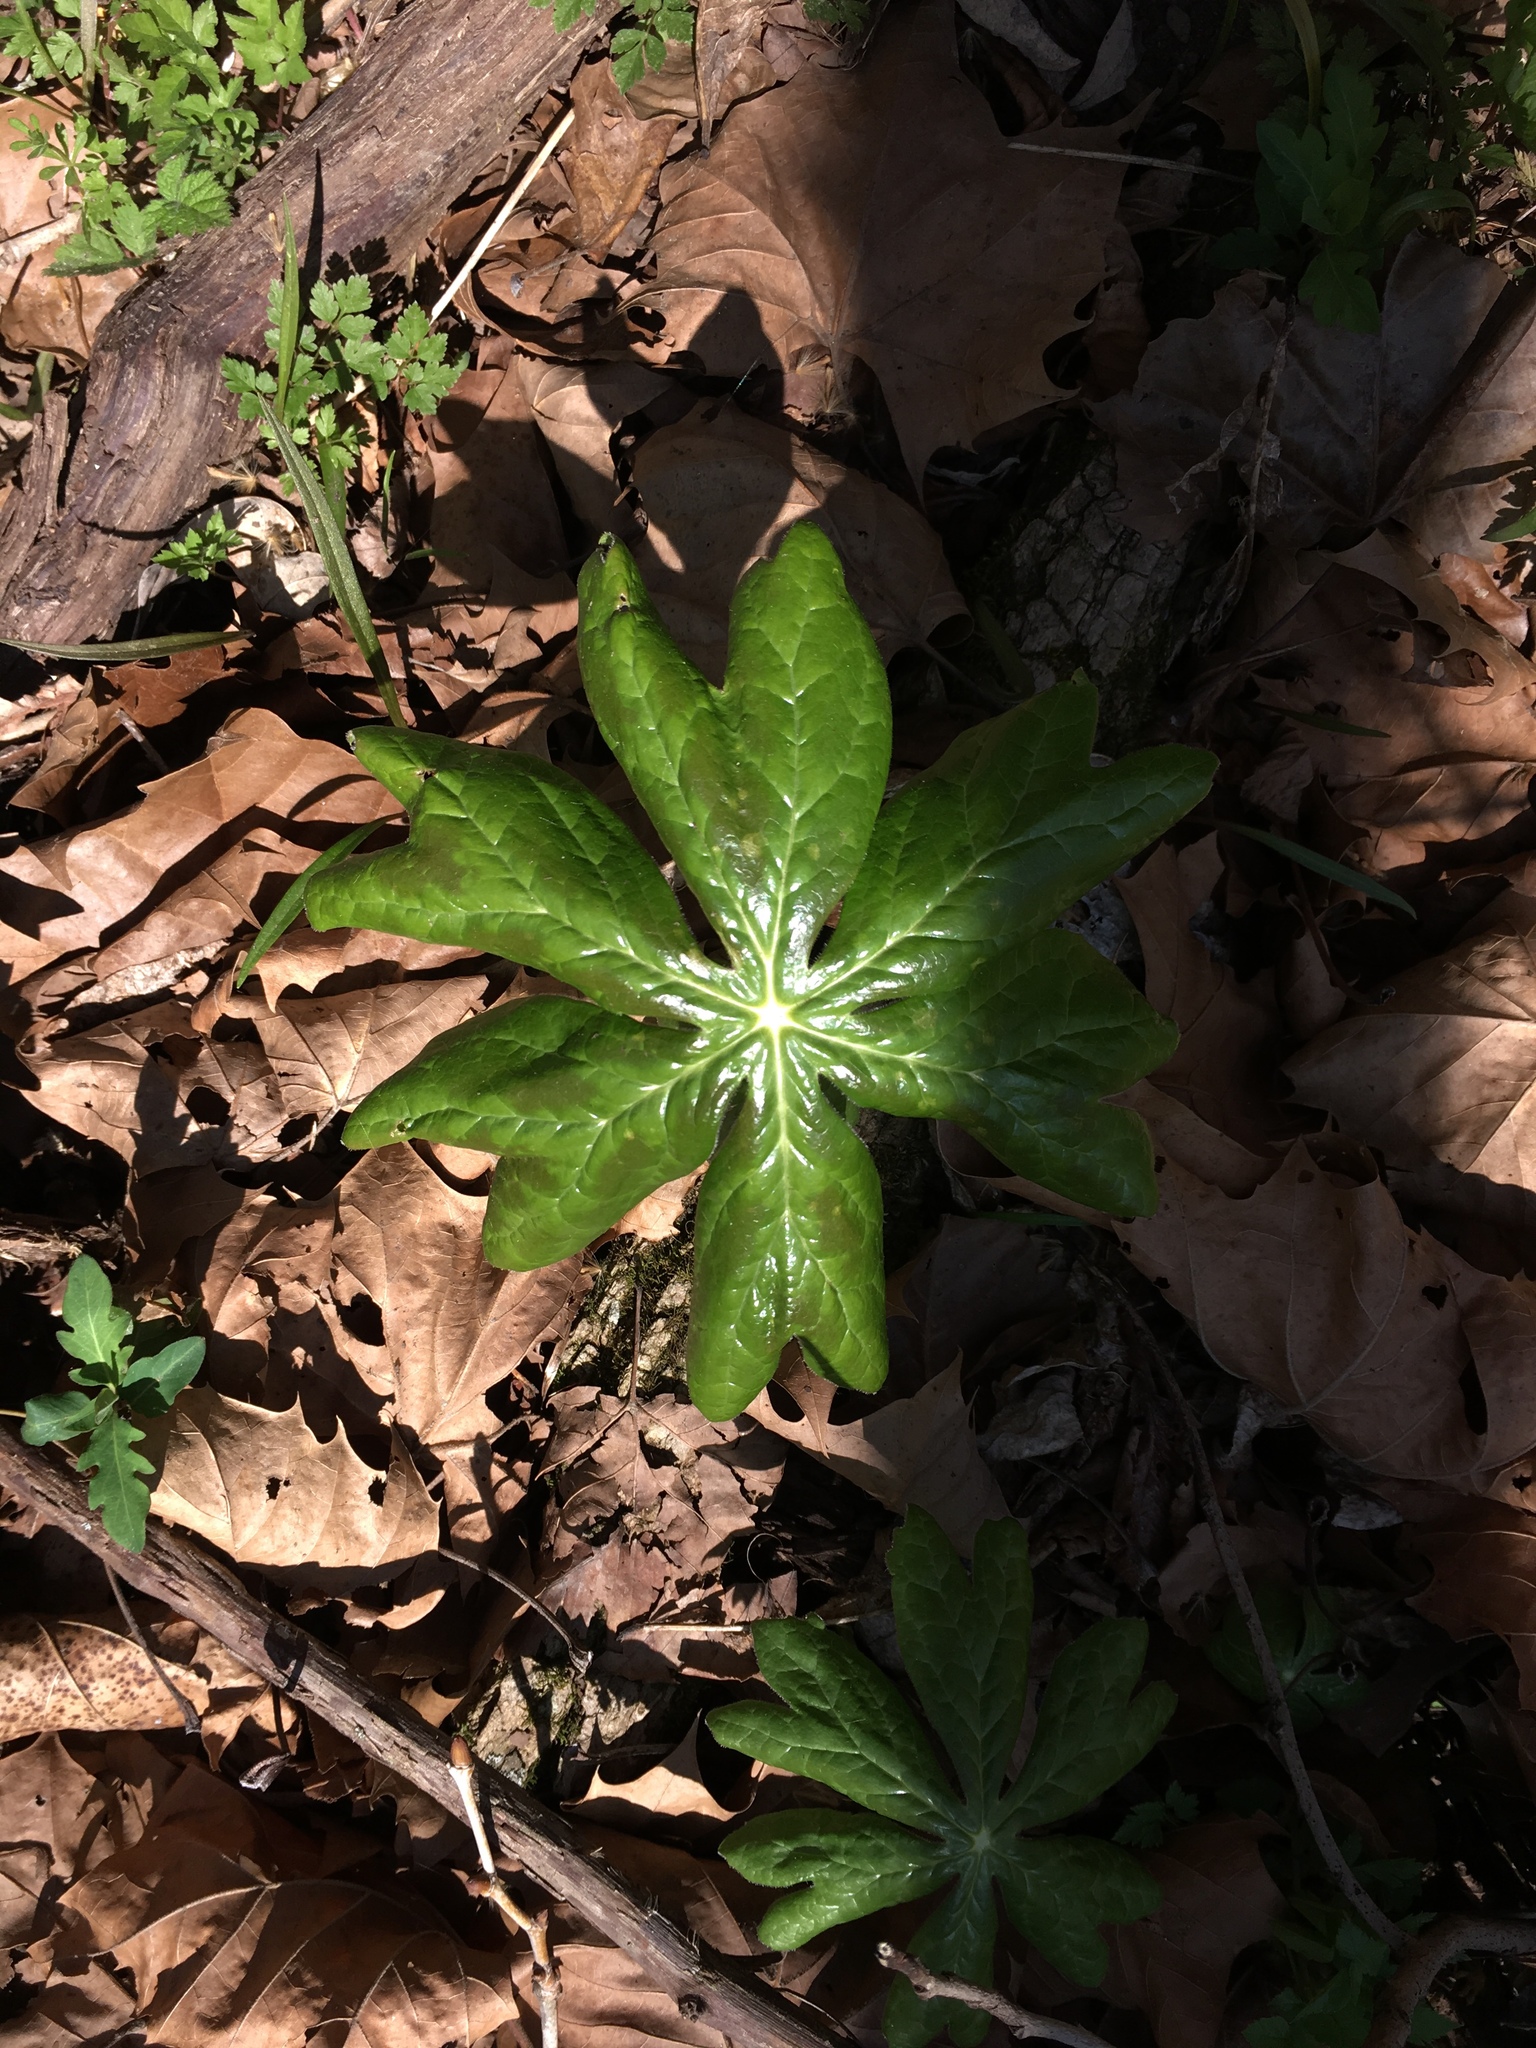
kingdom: Plantae
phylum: Tracheophyta
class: Magnoliopsida
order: Ranunculales
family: Berberidaceae
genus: Podophyllum
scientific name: Podophyllum peltatum
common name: Wild mandrake
